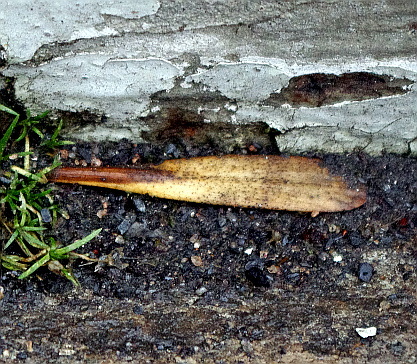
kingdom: Plantae
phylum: Tracheophyta
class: Magnoliopsida
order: Lamiales
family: Oleaceae
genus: Fraxinus
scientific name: Fraxinus pennsylvanica
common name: Green ash
